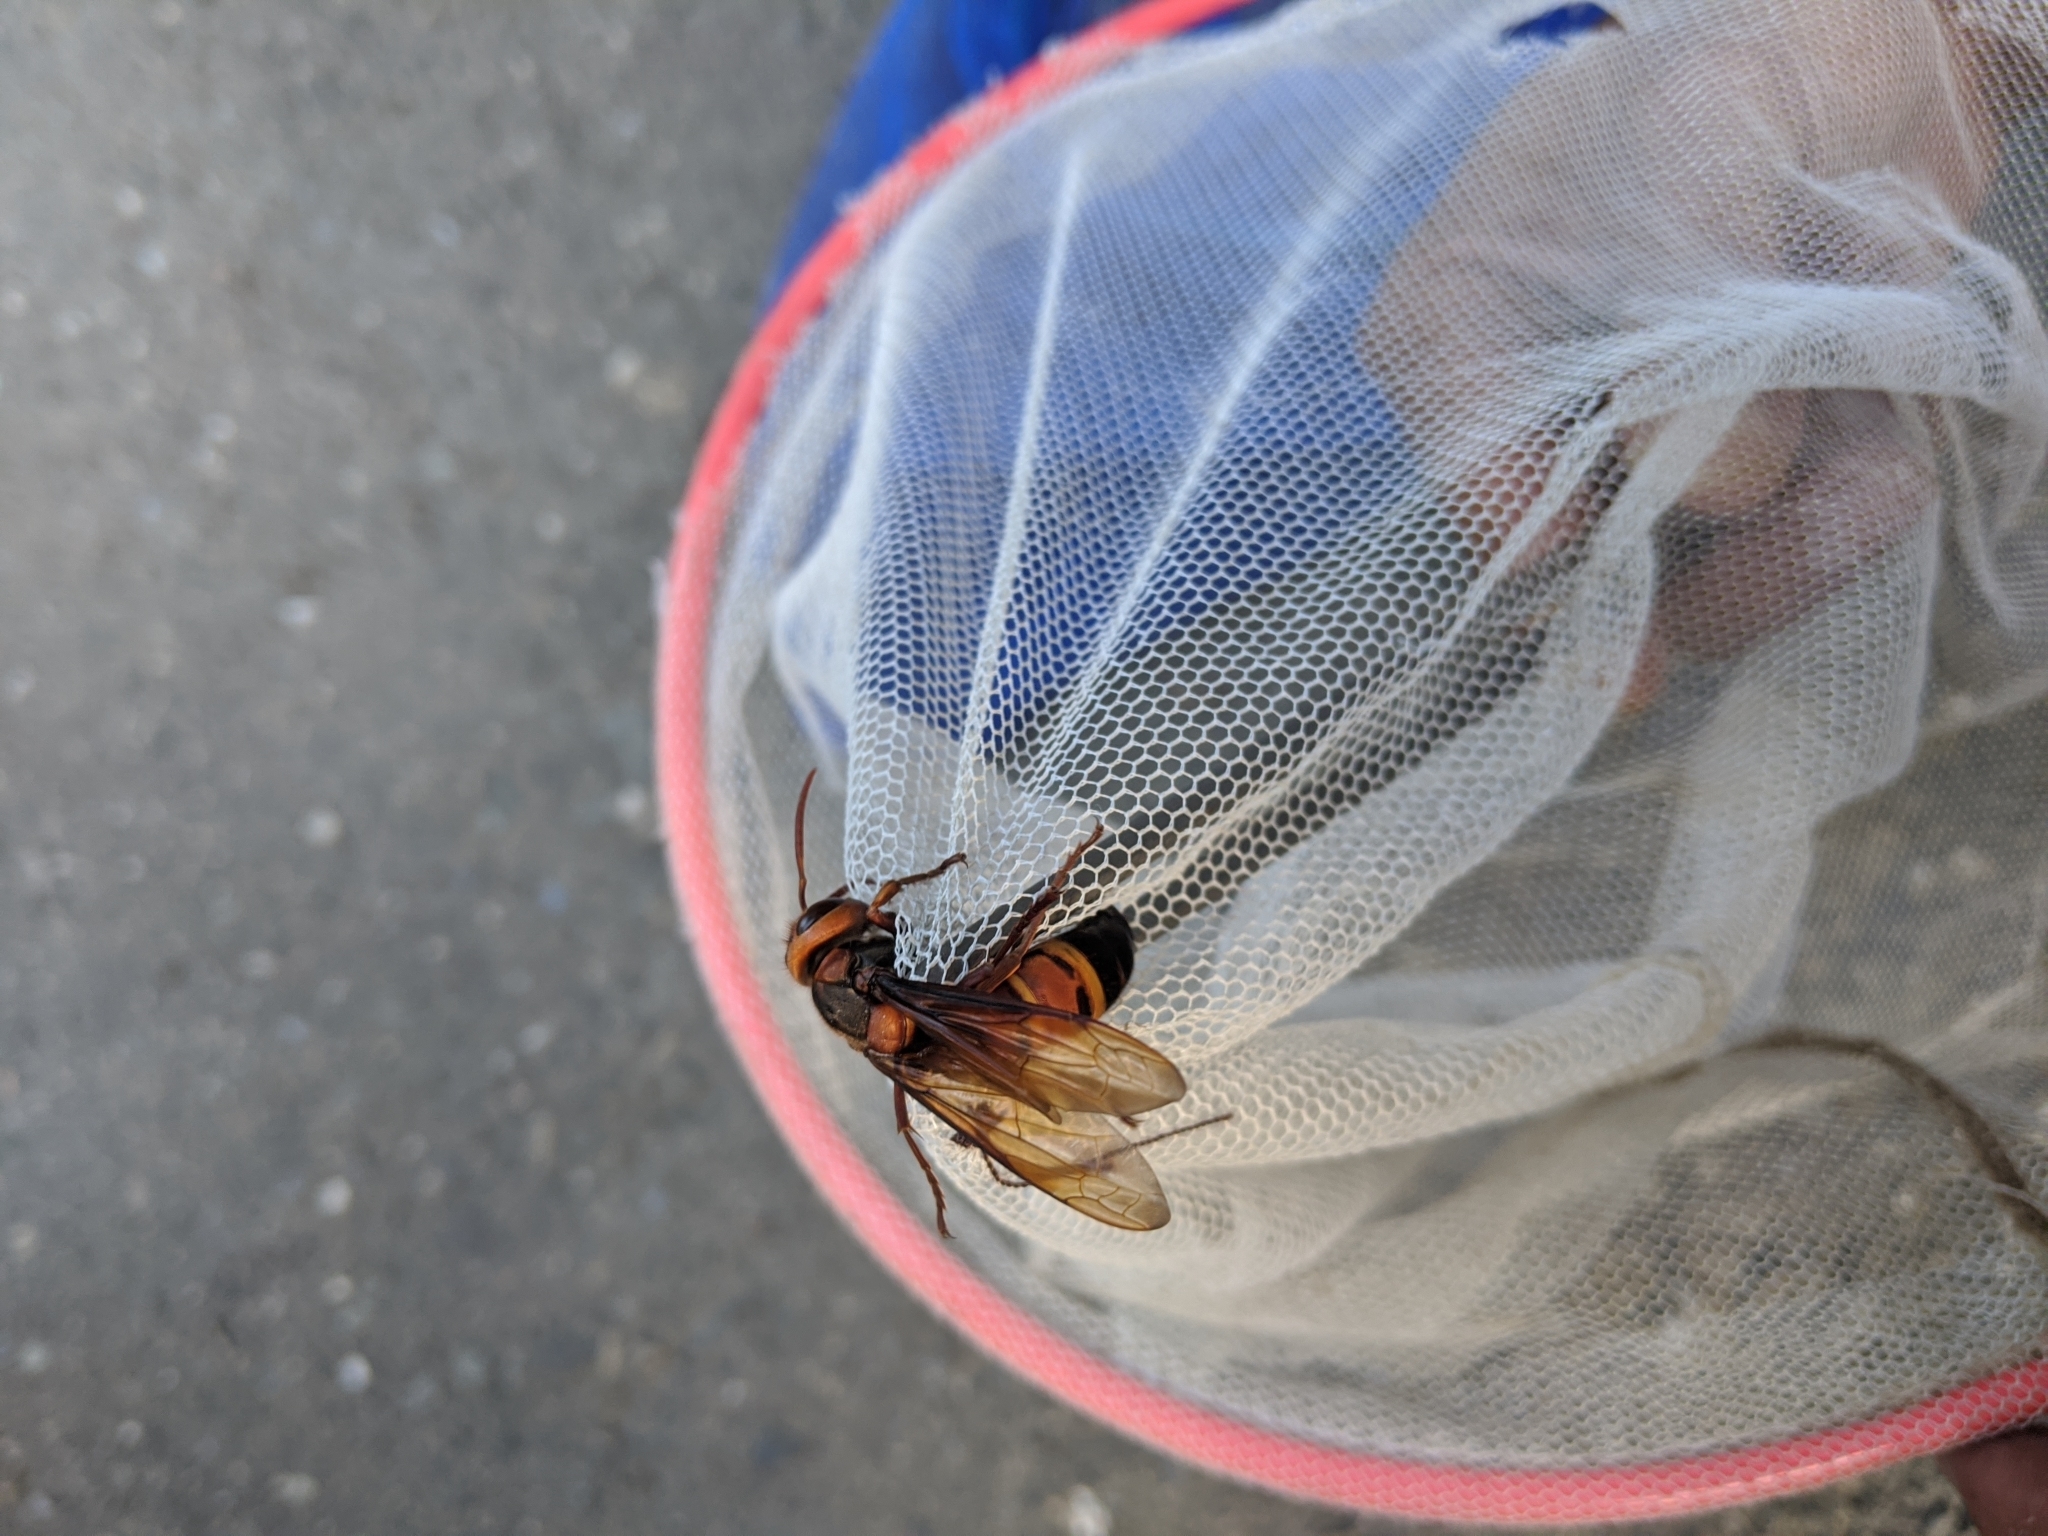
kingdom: Animalia
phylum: Arthropoda
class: Insecta
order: Hymenoptera
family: Vespidae
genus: Vespa
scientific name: Vespa ducalis
